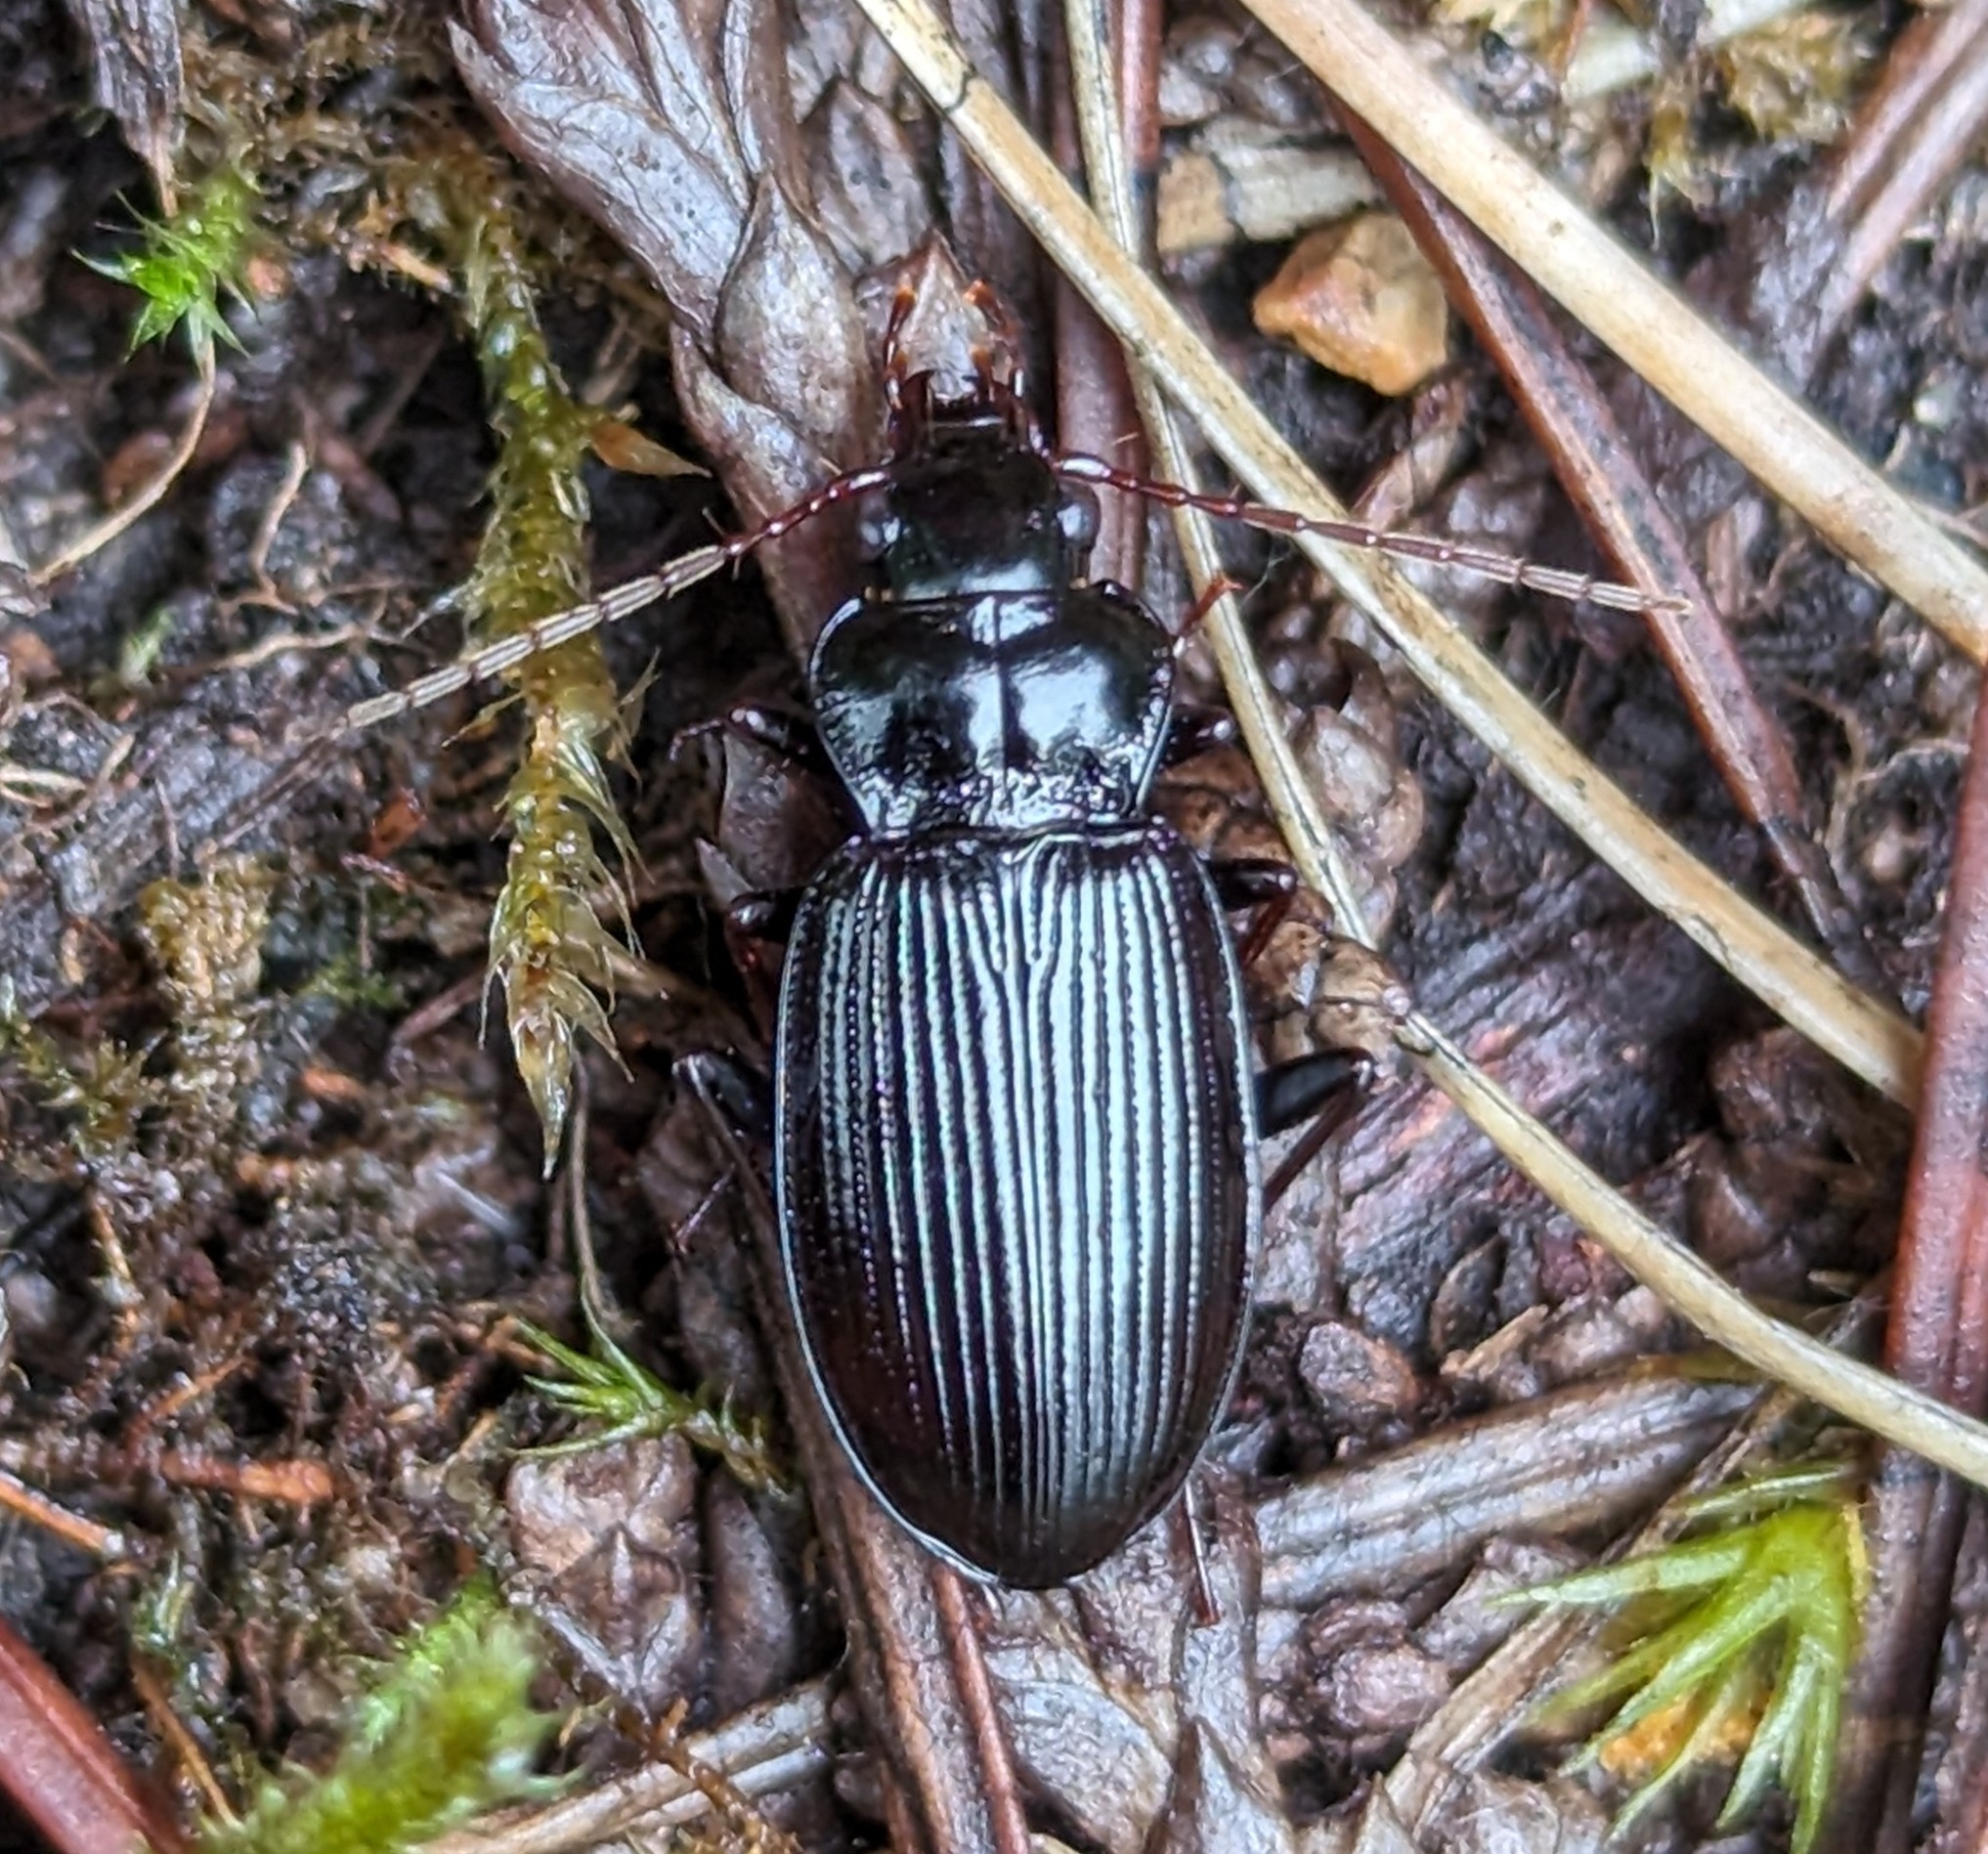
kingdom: Animalia
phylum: Arthropoda
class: Insecta
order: Coleoptera
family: Carabidae
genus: Nebria
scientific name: Nebria brevicollis
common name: Short-necked gazelle beetle
